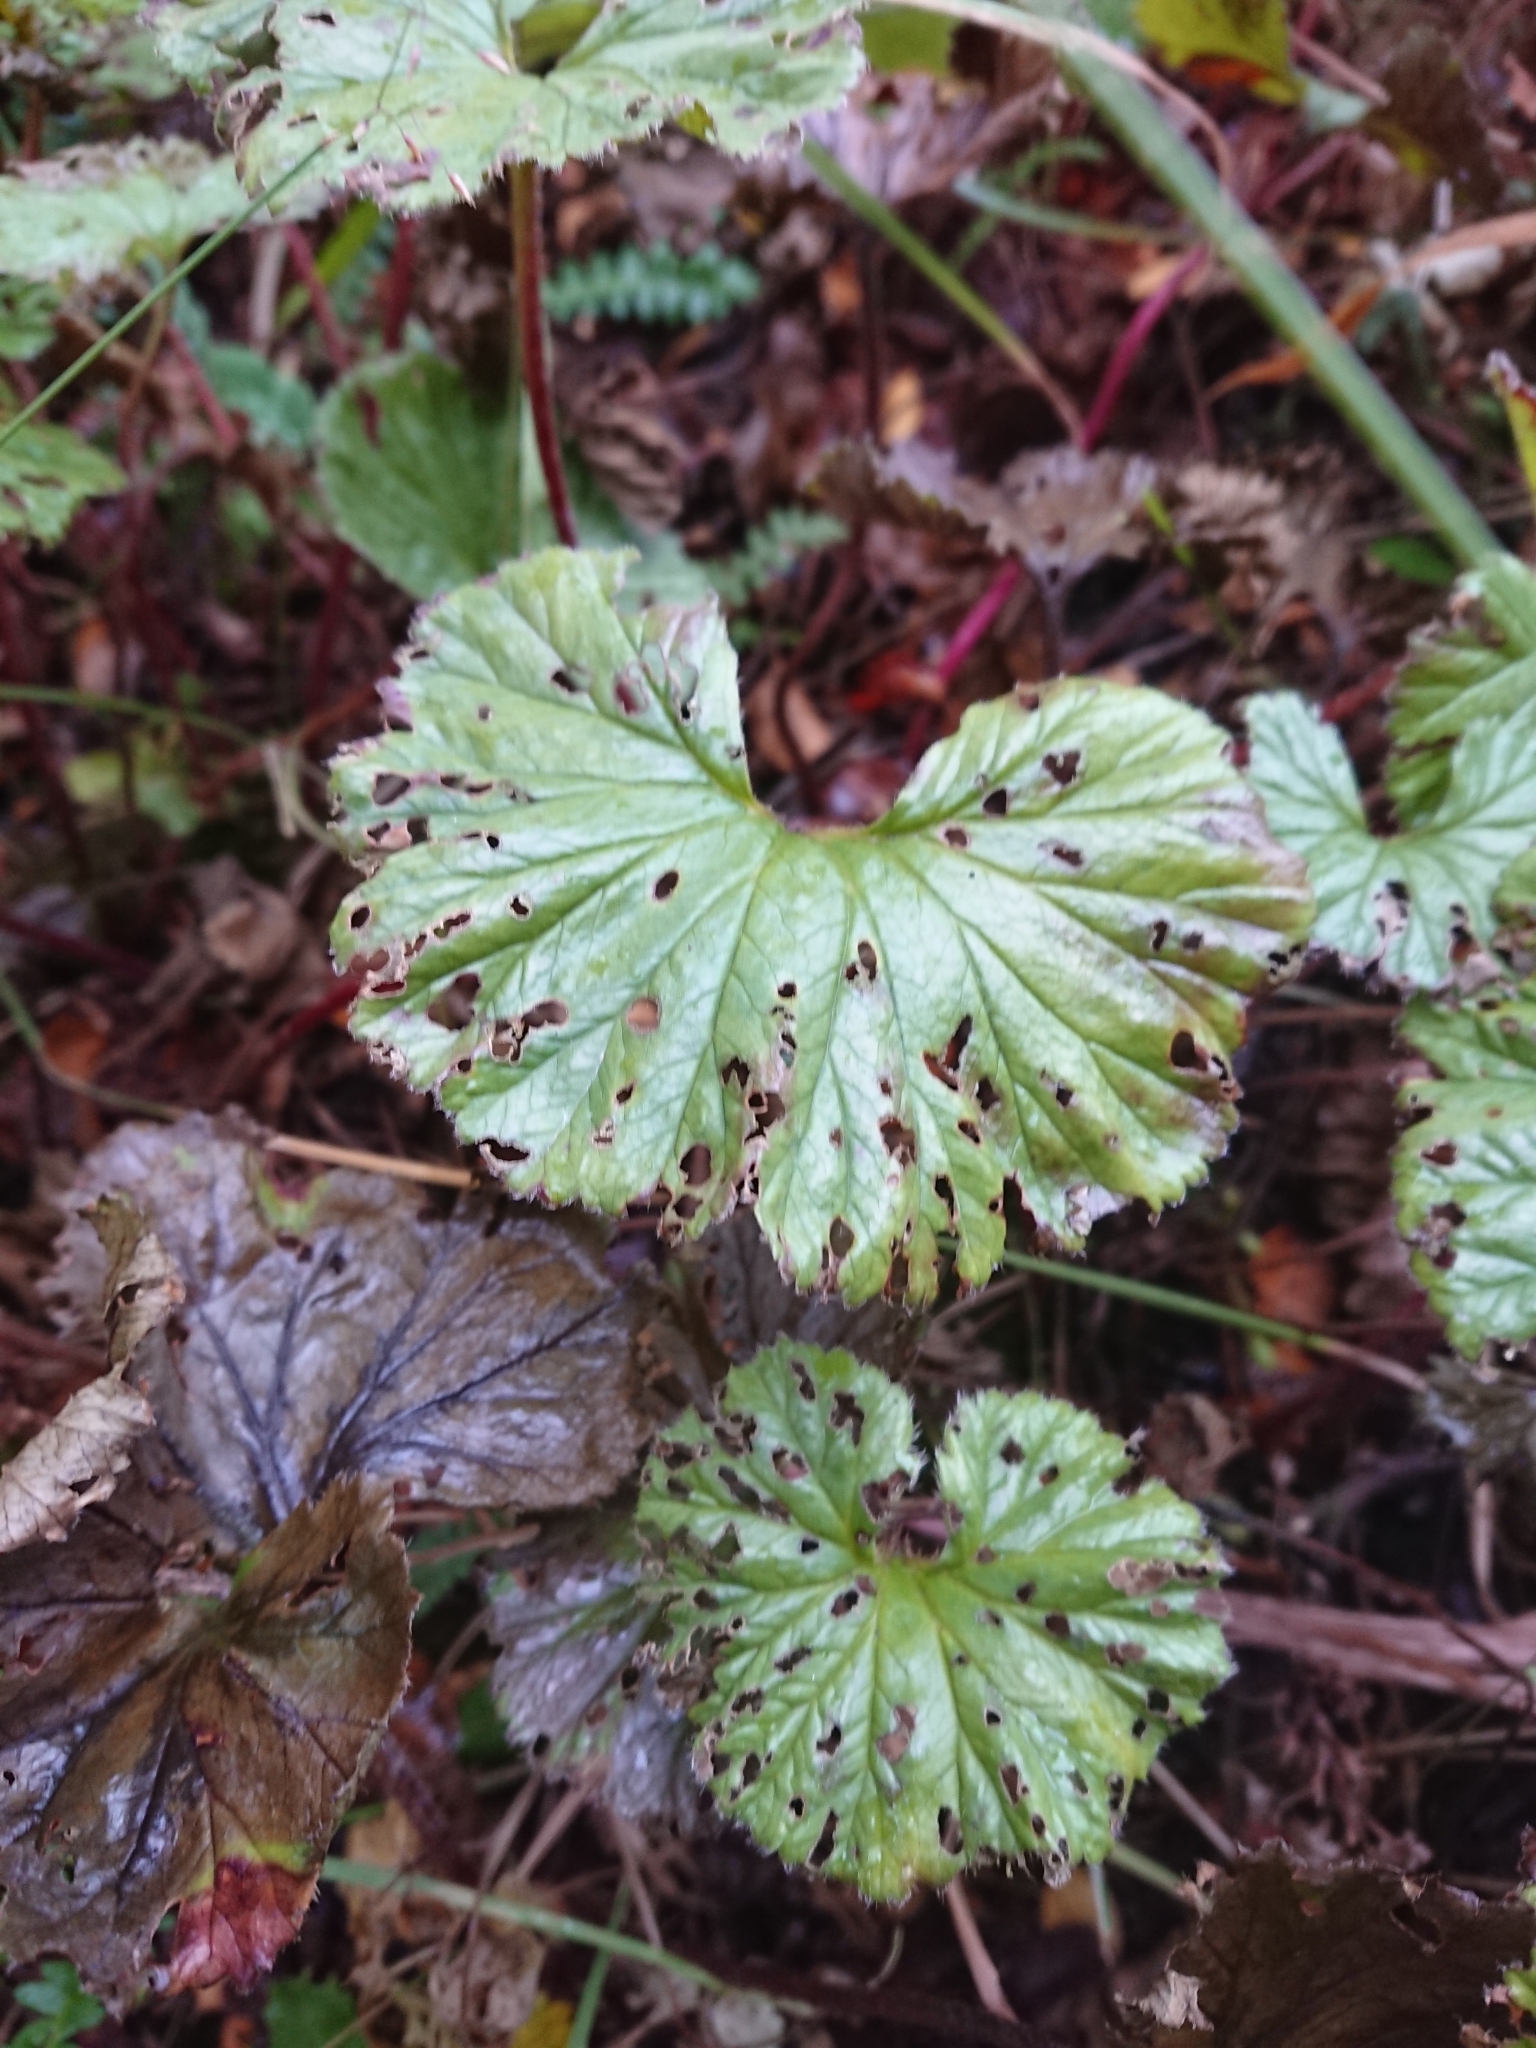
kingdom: Plantae
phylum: Tracheophyta
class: Magnoliopsida
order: Gunnerales
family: Gunneraceae
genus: Gunnera
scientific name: Gunnera magellanica
